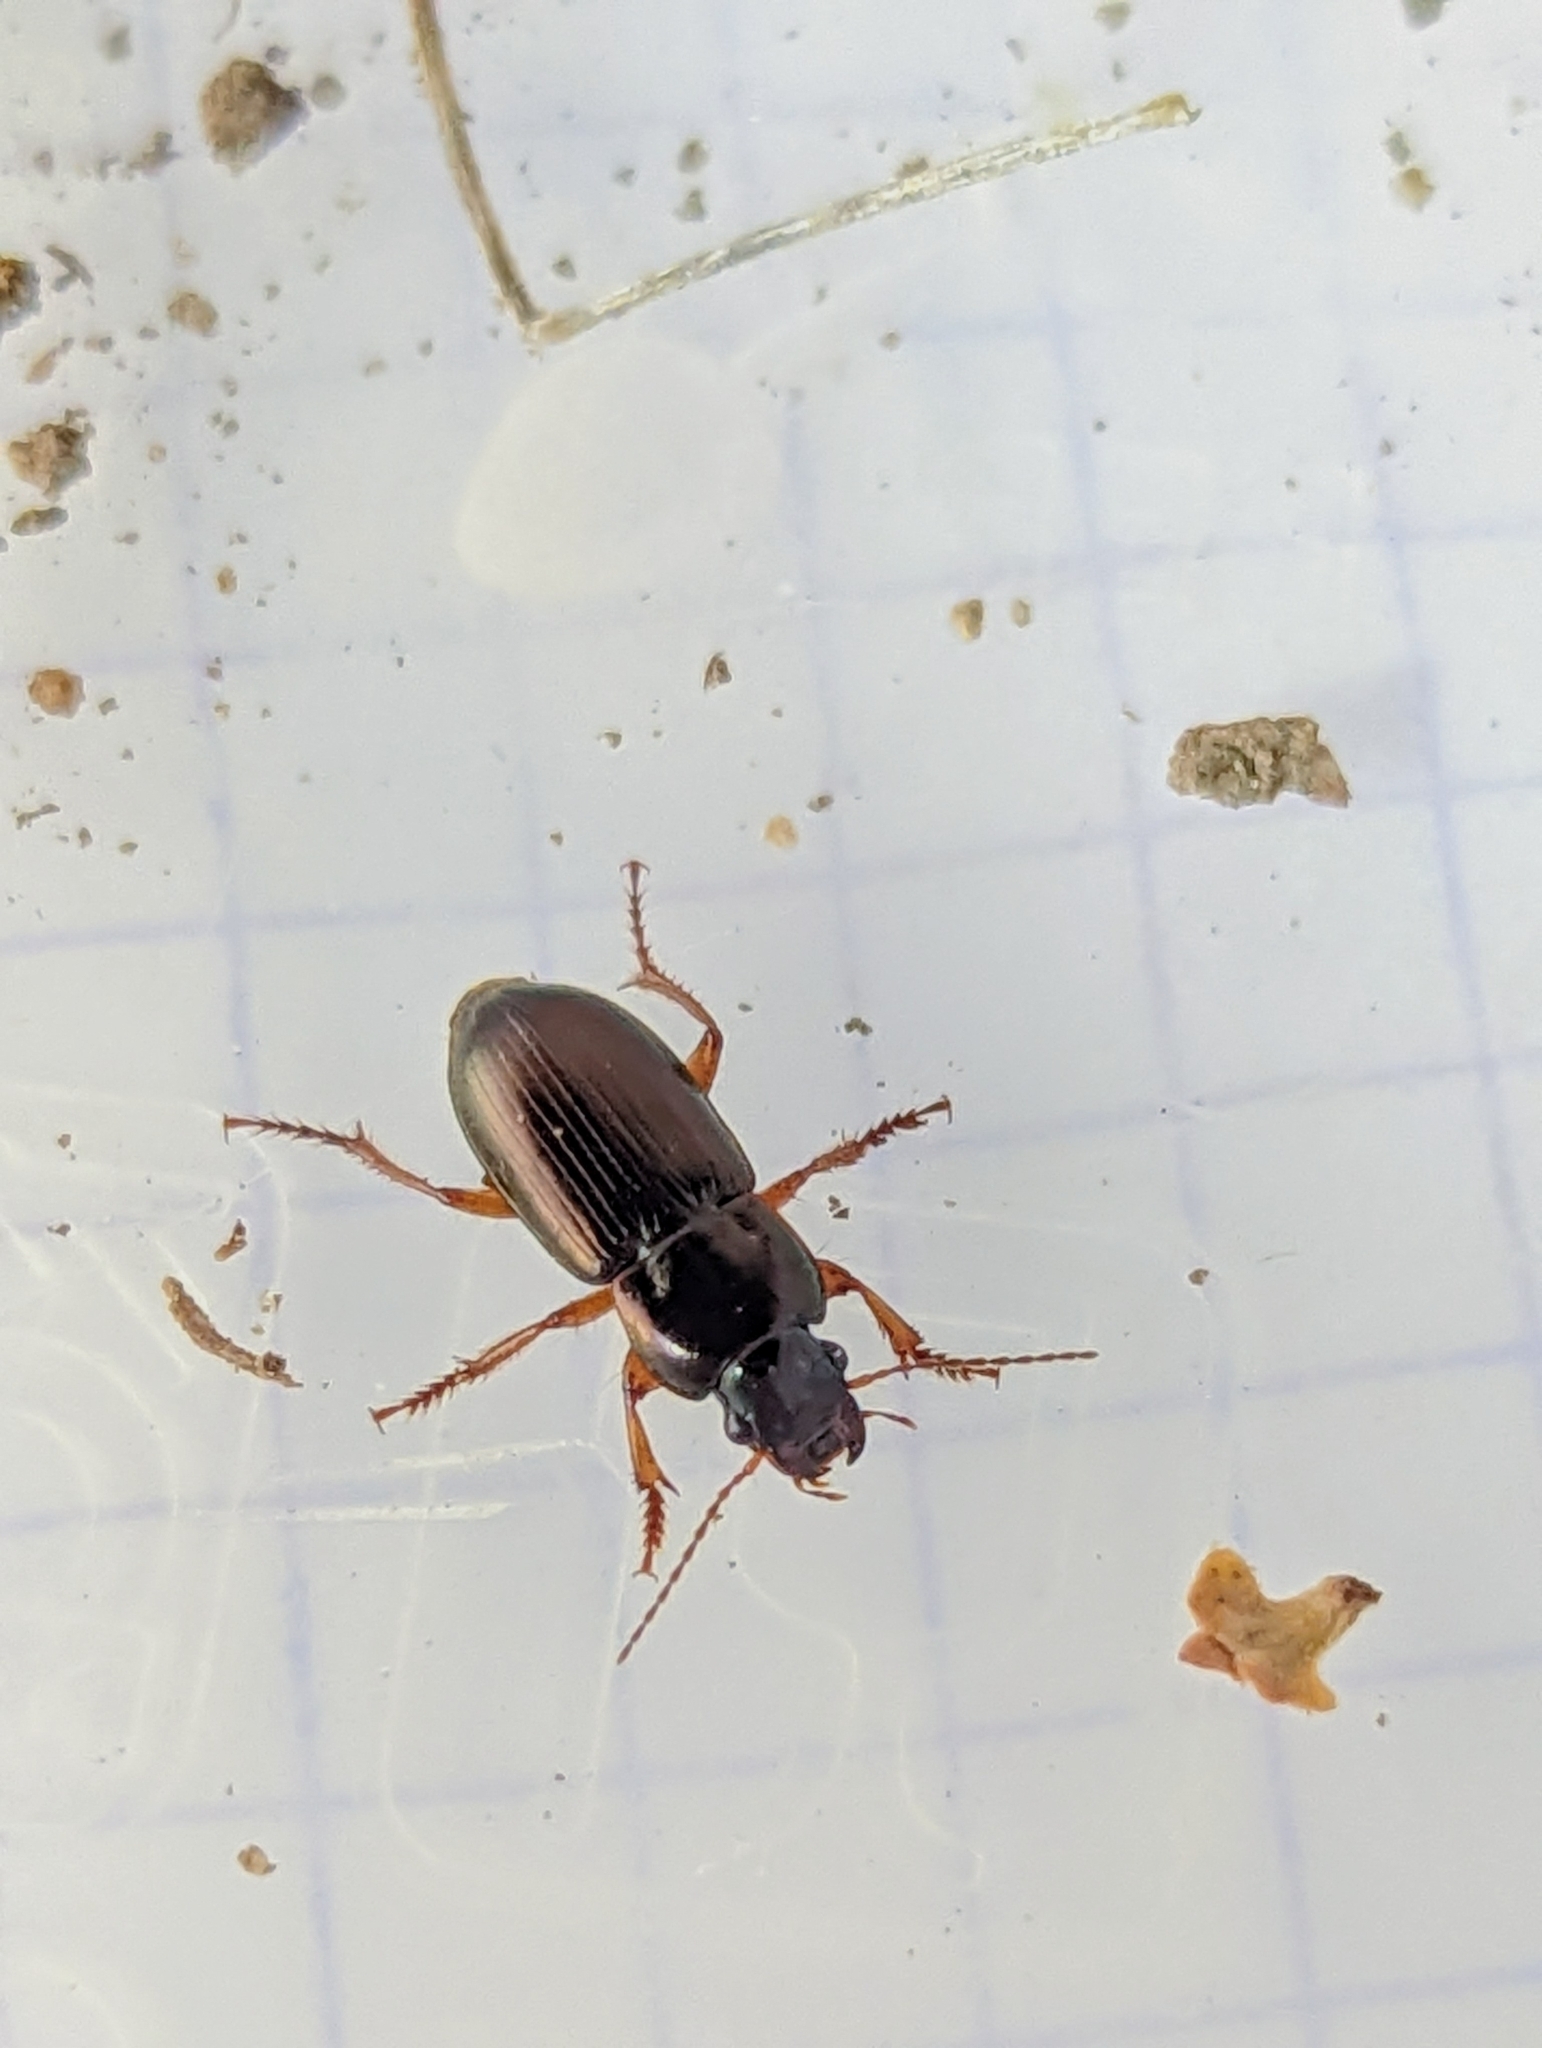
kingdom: Animalia
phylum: Arthropoda
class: Insecta
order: Coleoptera
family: Carabidae
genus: Harpalus
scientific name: Harpalus affinis
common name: Polychrome harp ground beetle
